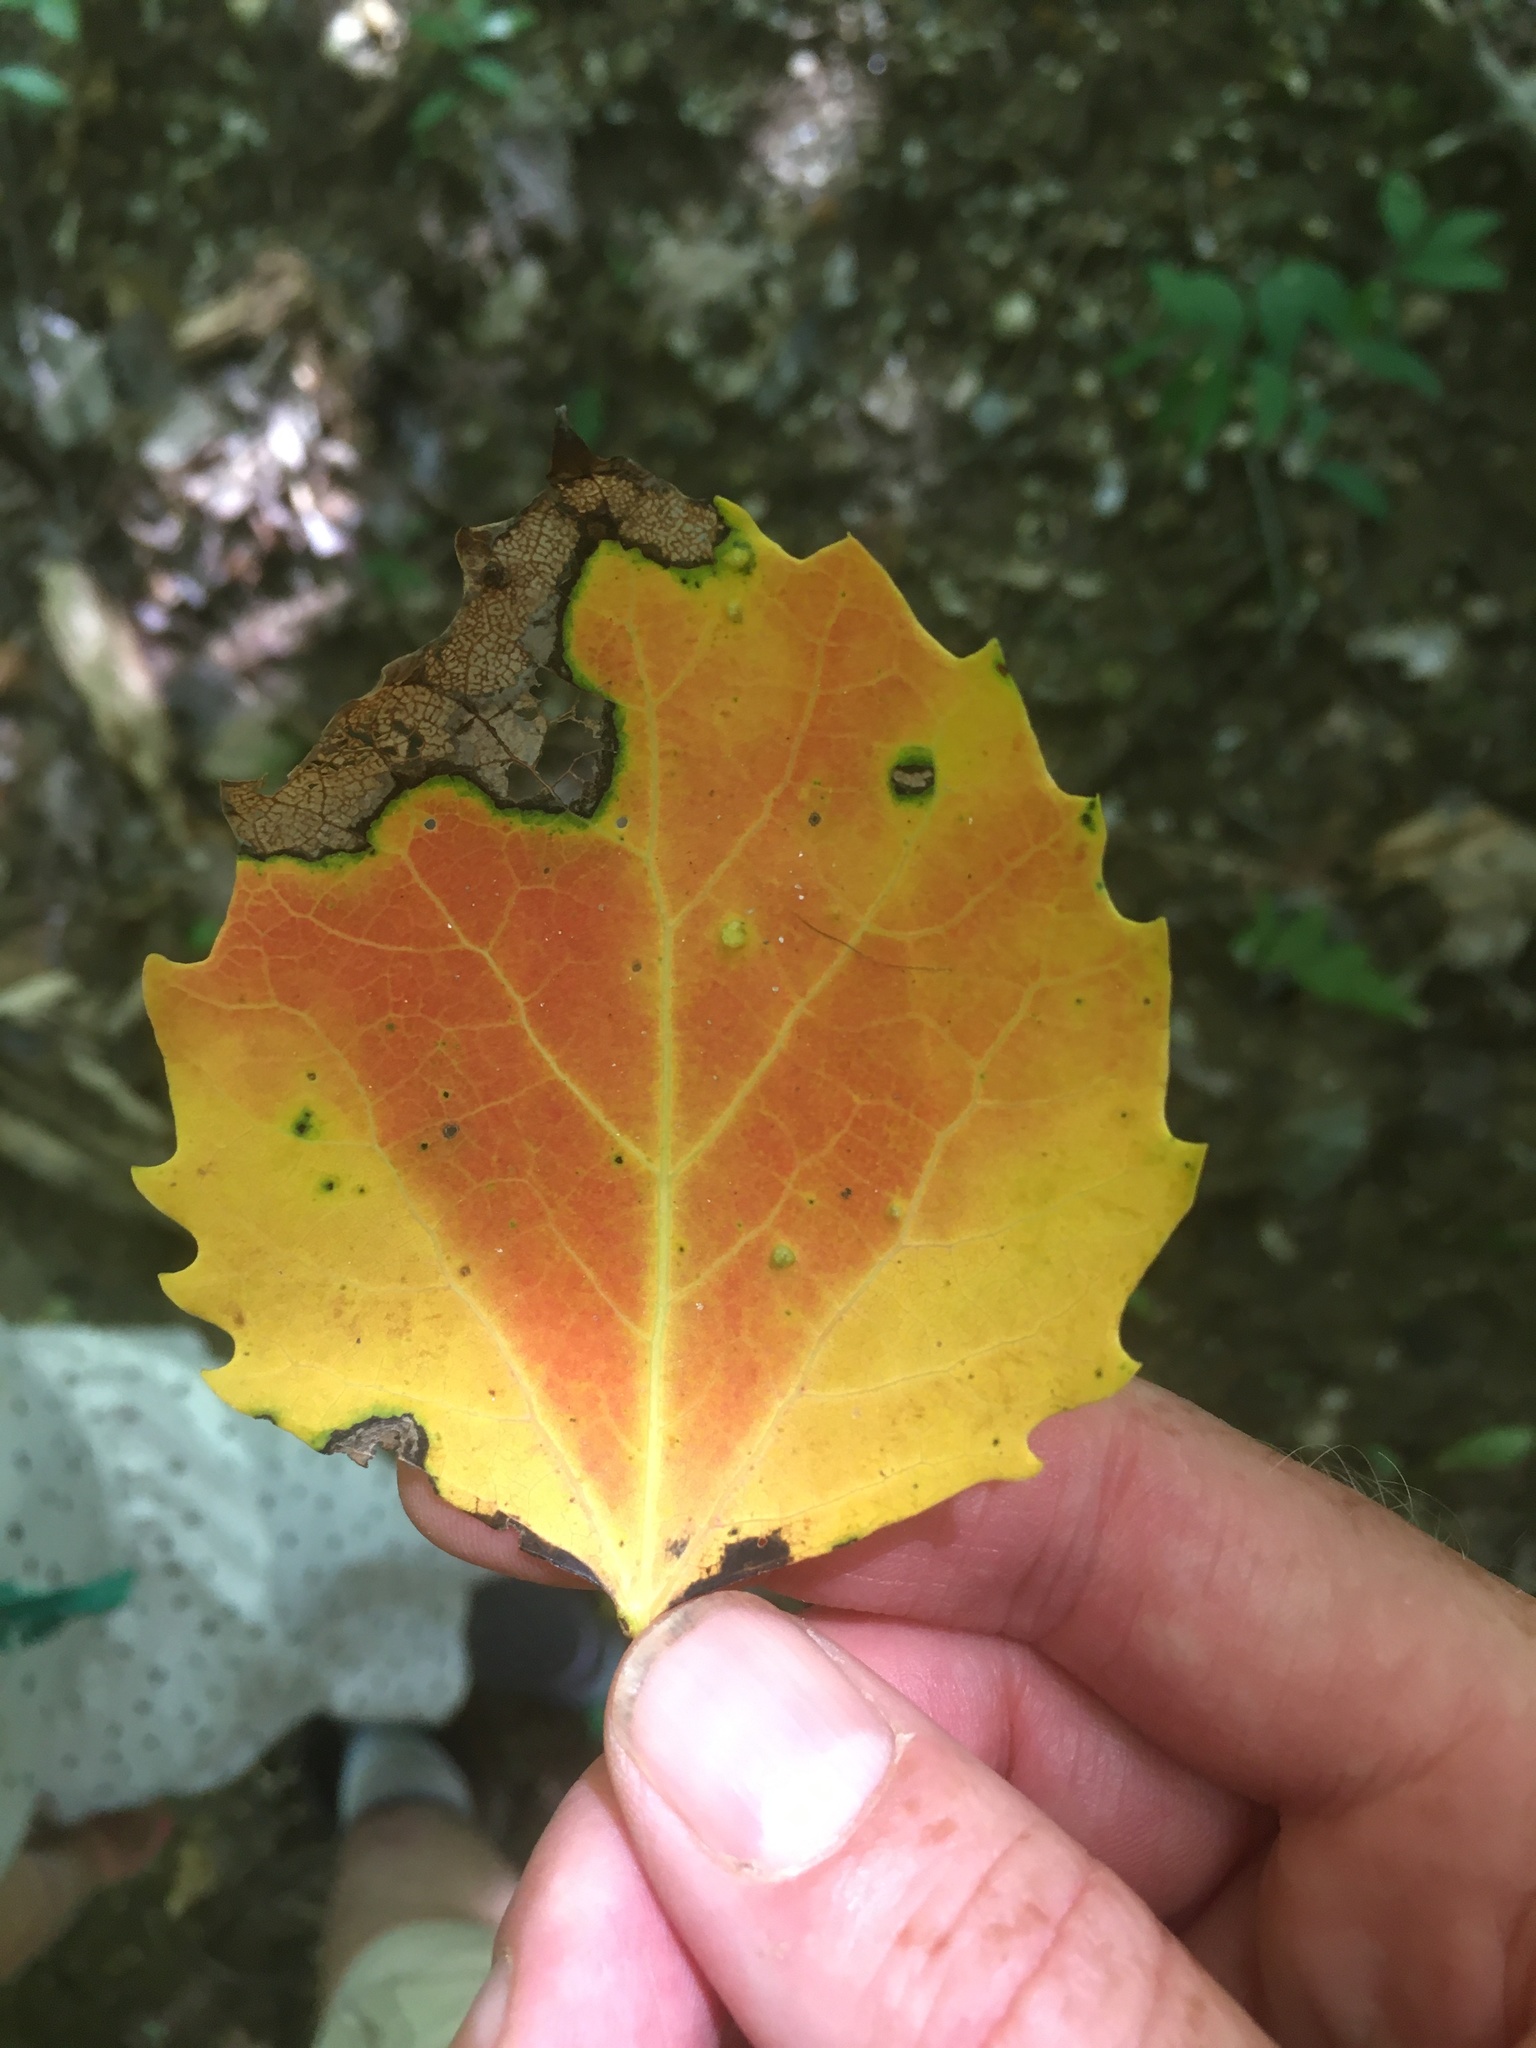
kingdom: Plantae
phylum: Tracheophyta
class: Magnoliopsida
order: Malpighiales
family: Salicaceae
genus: Populus
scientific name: Populus grandidentata
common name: Bigtooth aspen
